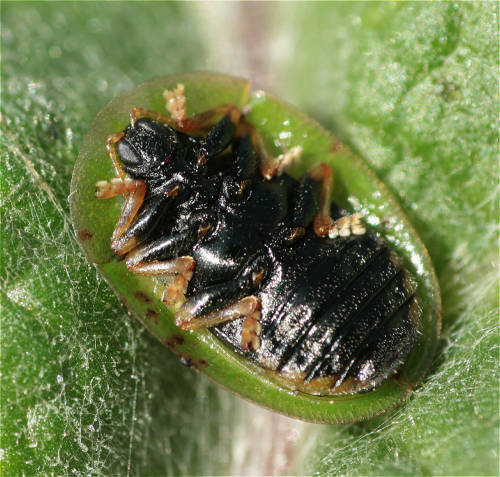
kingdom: Animalia
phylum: Arthropoda
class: Insecta
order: Coleoptera
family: Chrysomelidae
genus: Cassida
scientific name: Cassida rubiginosa
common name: Thistle tortoise beetle
